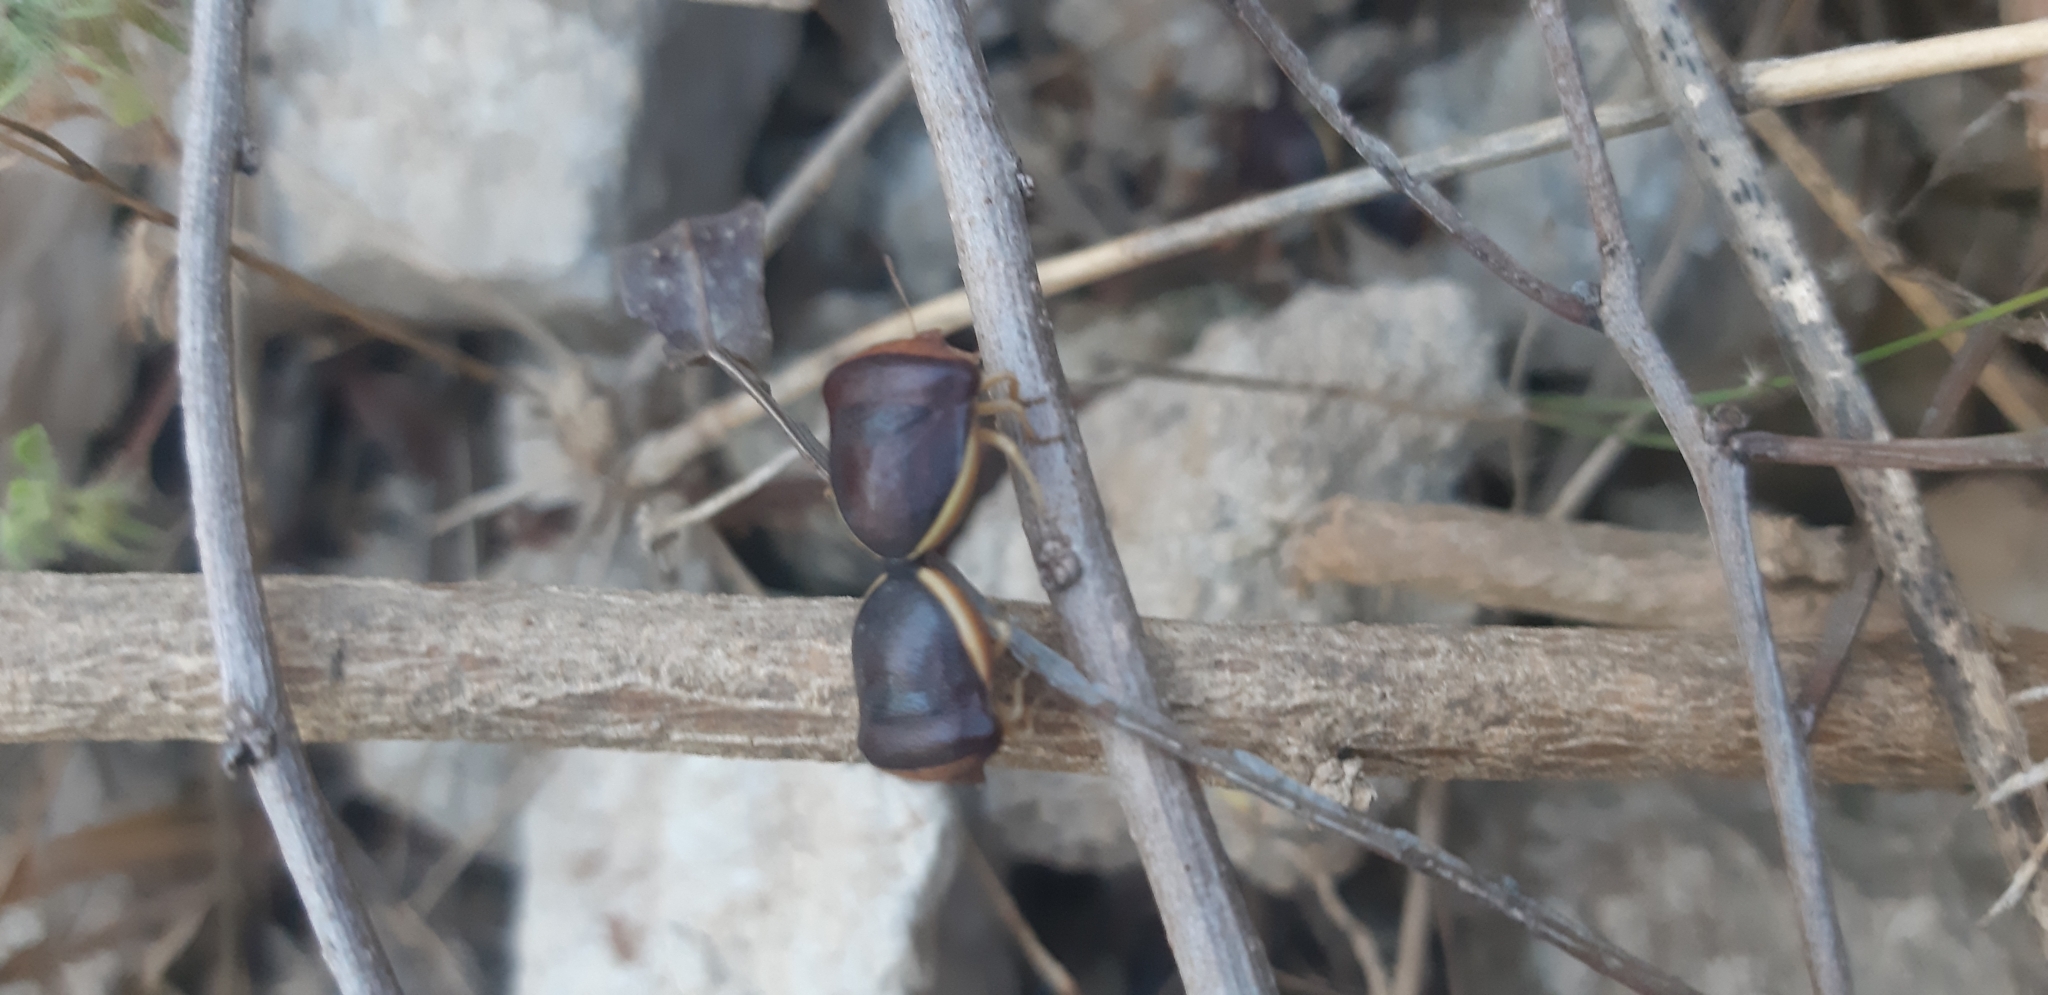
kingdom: Animalia
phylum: Arthropoda
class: Insecta
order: Hemiptera
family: Pentatomidae
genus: Ventocoris
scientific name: Ventocoris rusticus
